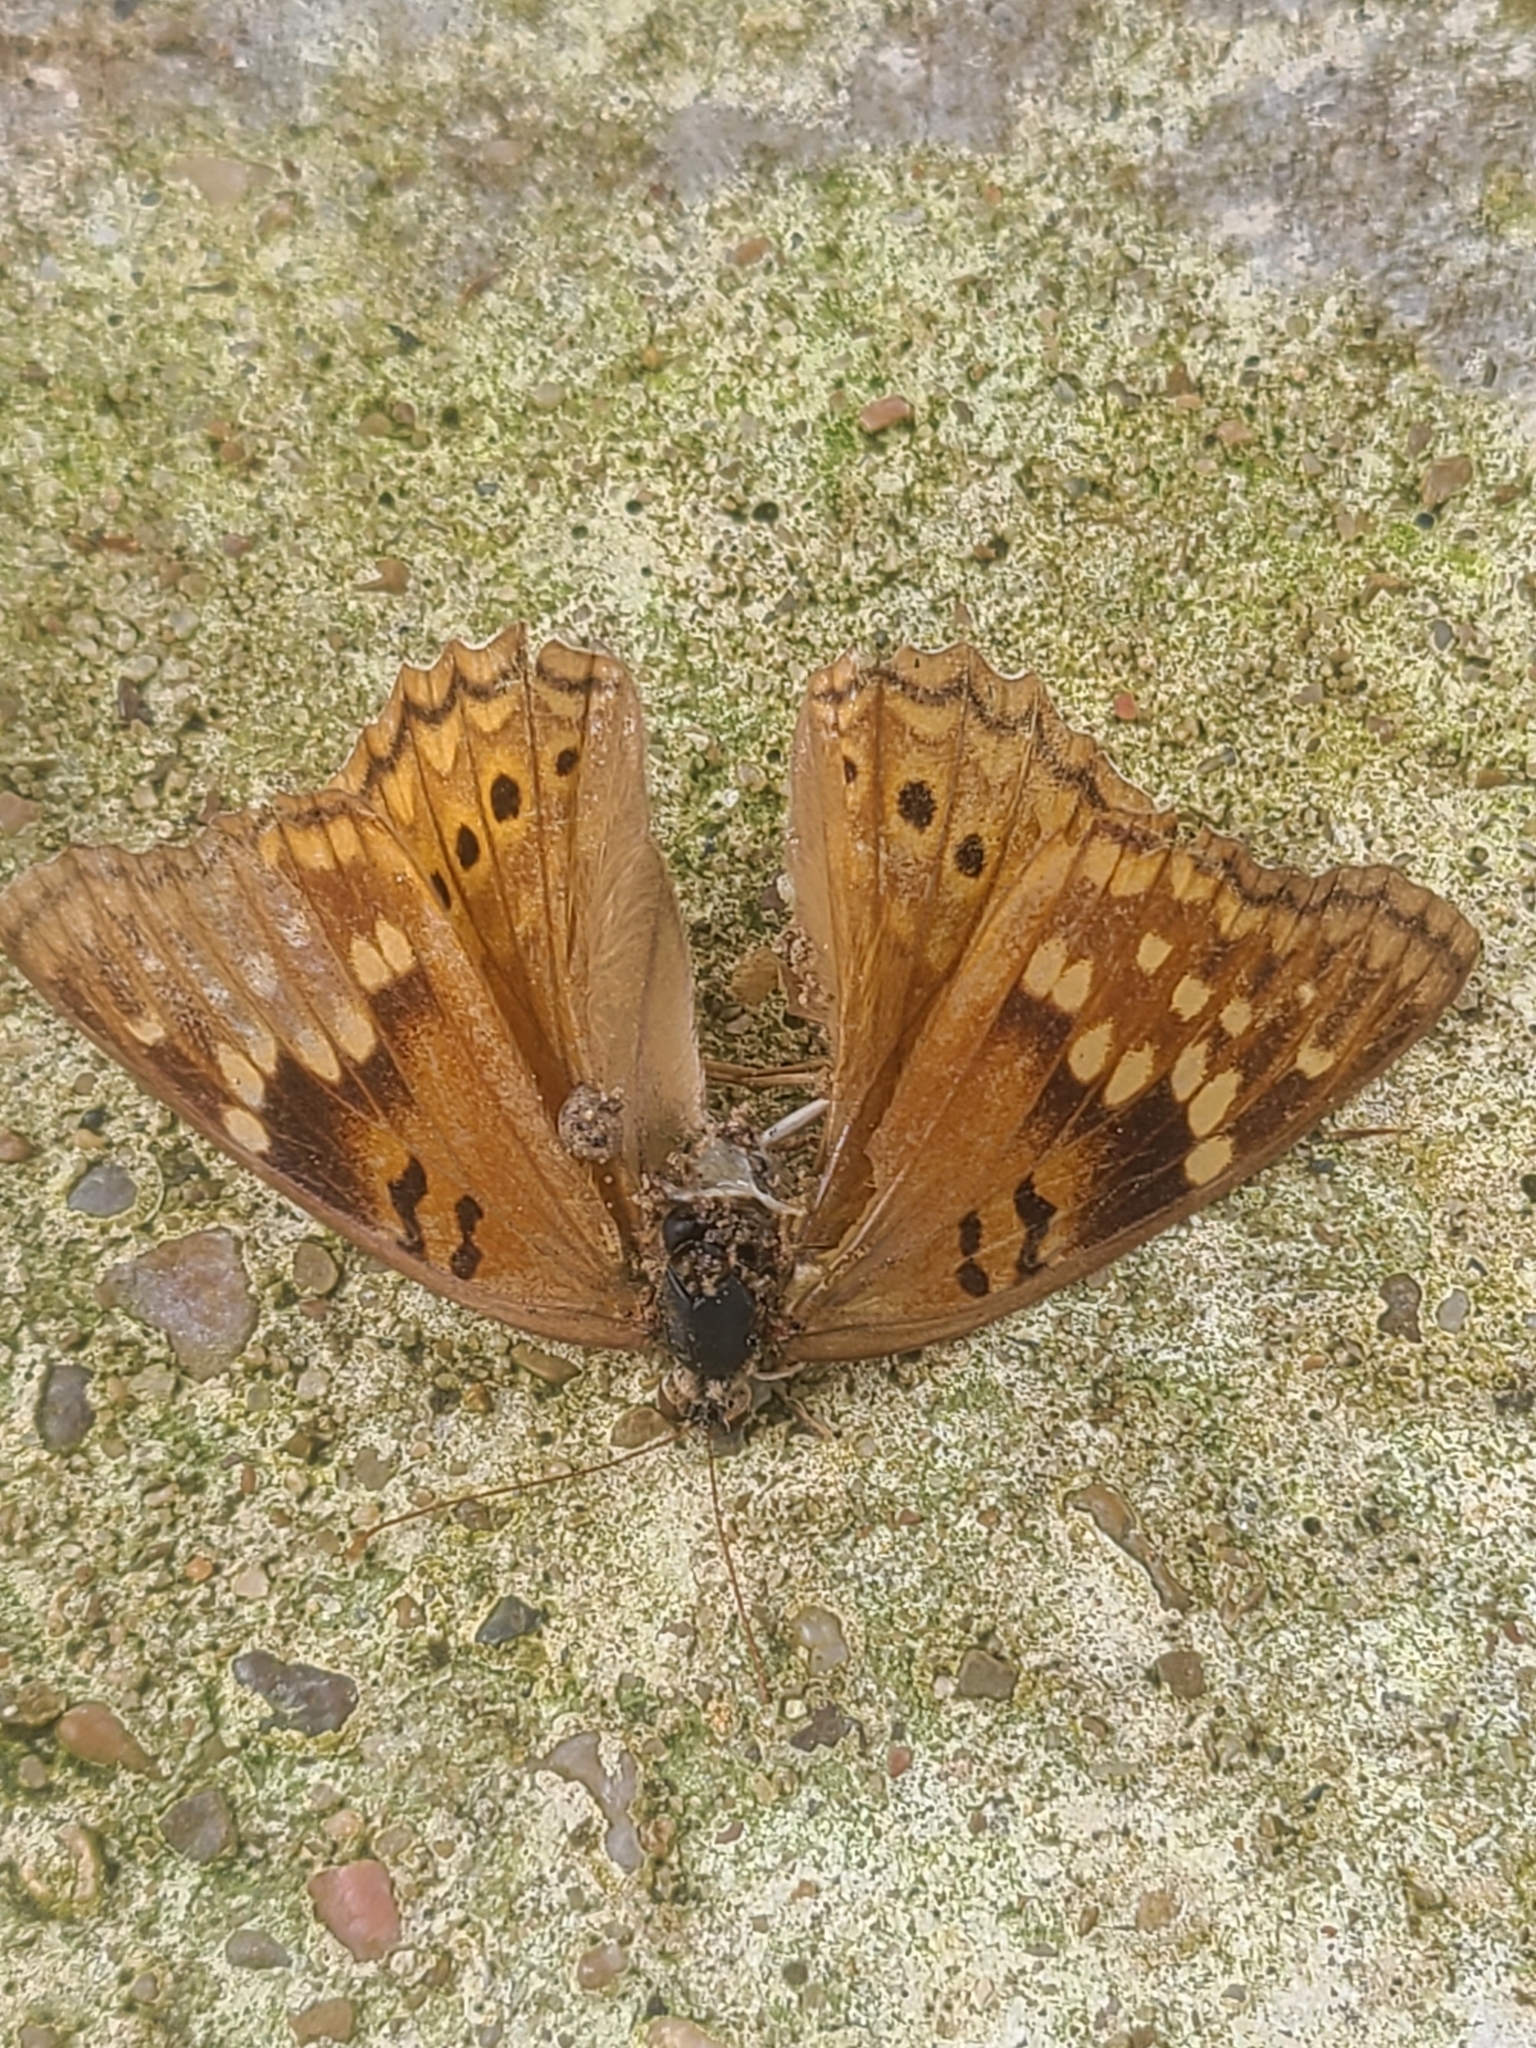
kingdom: Animalia
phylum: Arthropoda
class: Insecta
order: Lepidoptera
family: Nymphalidae
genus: Asterocampa
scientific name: Asterocampa clyton
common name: Tawny emperor
